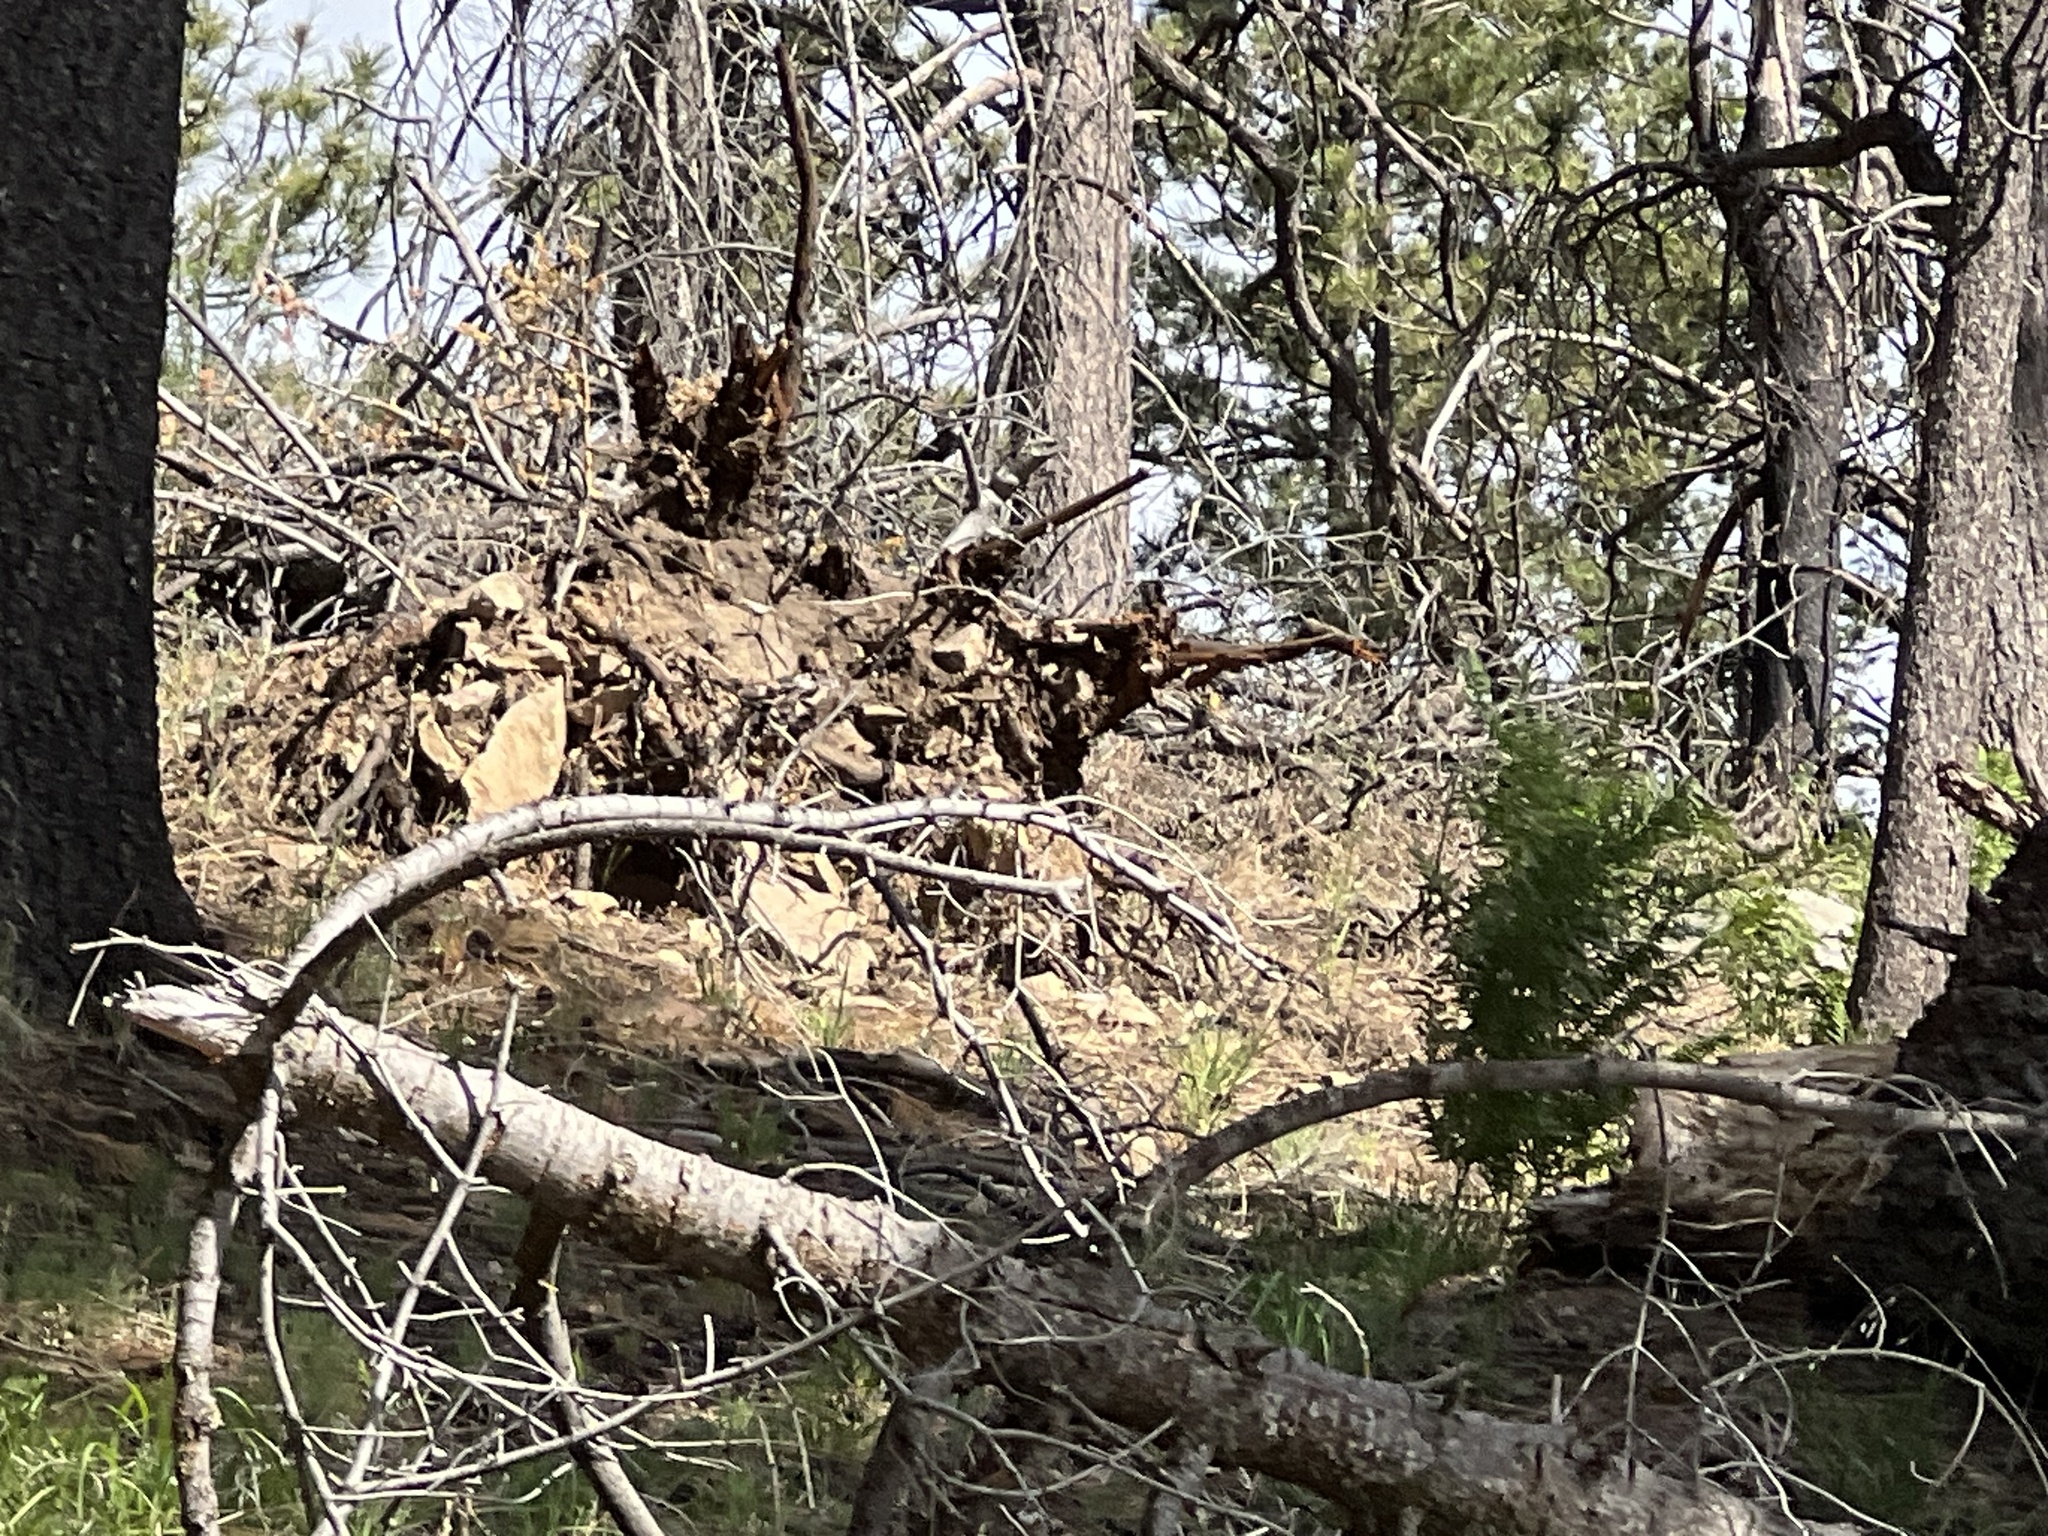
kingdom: Animalia
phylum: Chordata
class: Mammalia
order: Artiodactyla
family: Cervidae
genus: Odocoileus
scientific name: Odocoileus virginianus
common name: White-tailed deer
